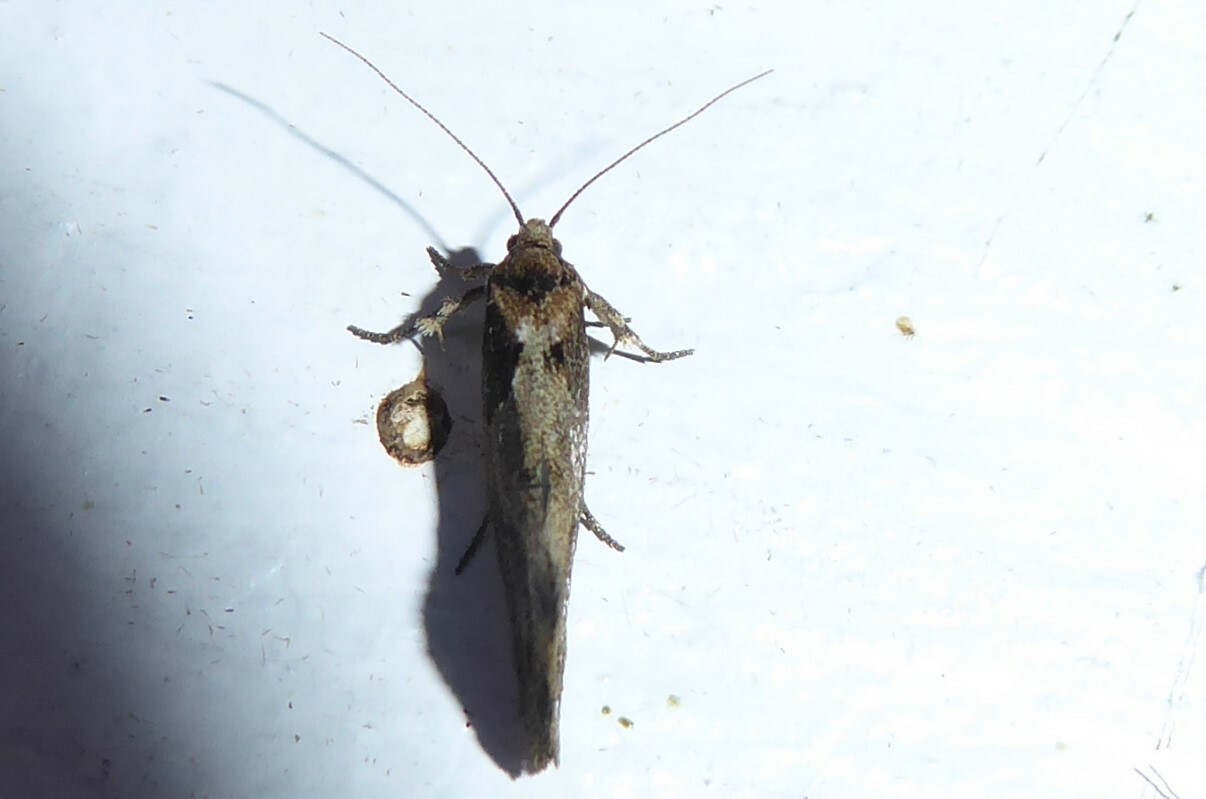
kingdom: Animalia
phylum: Arthropoda
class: Insecta
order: Lepidoptera
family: Oecophoridae
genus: Tingena
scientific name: Tingena brachyacma
